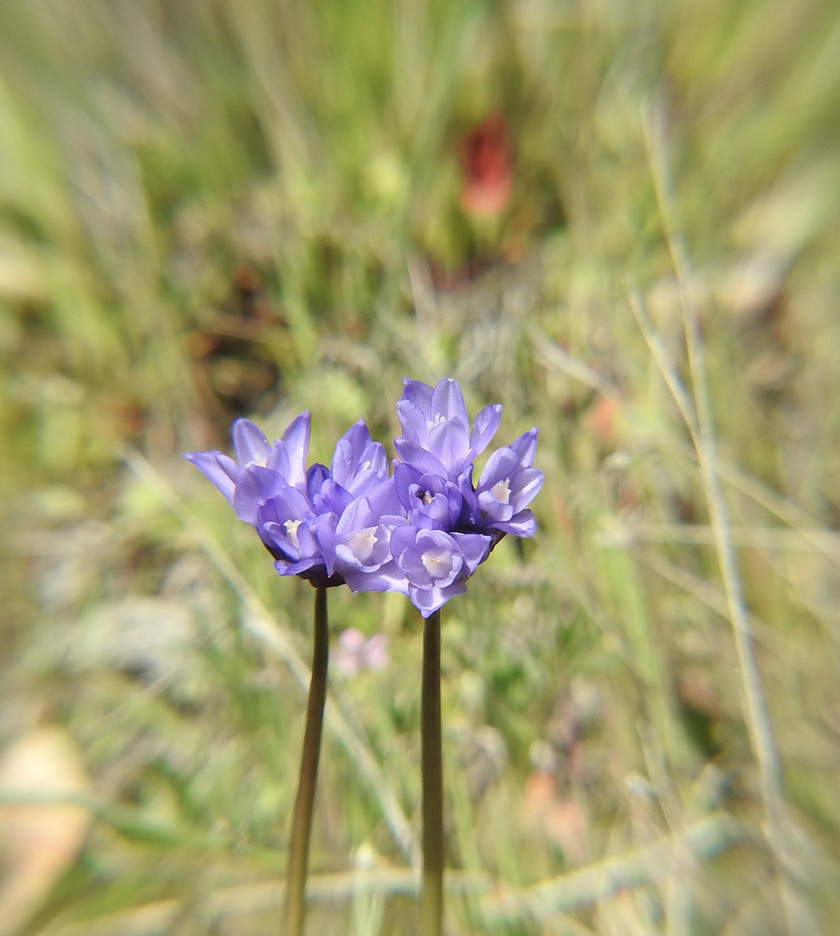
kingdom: Plantae
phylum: Tracheophyta
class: Liliopsida
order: Asparagales
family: Asparagaceae
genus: Dipterostemon
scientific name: Dipterostemon capitatus
